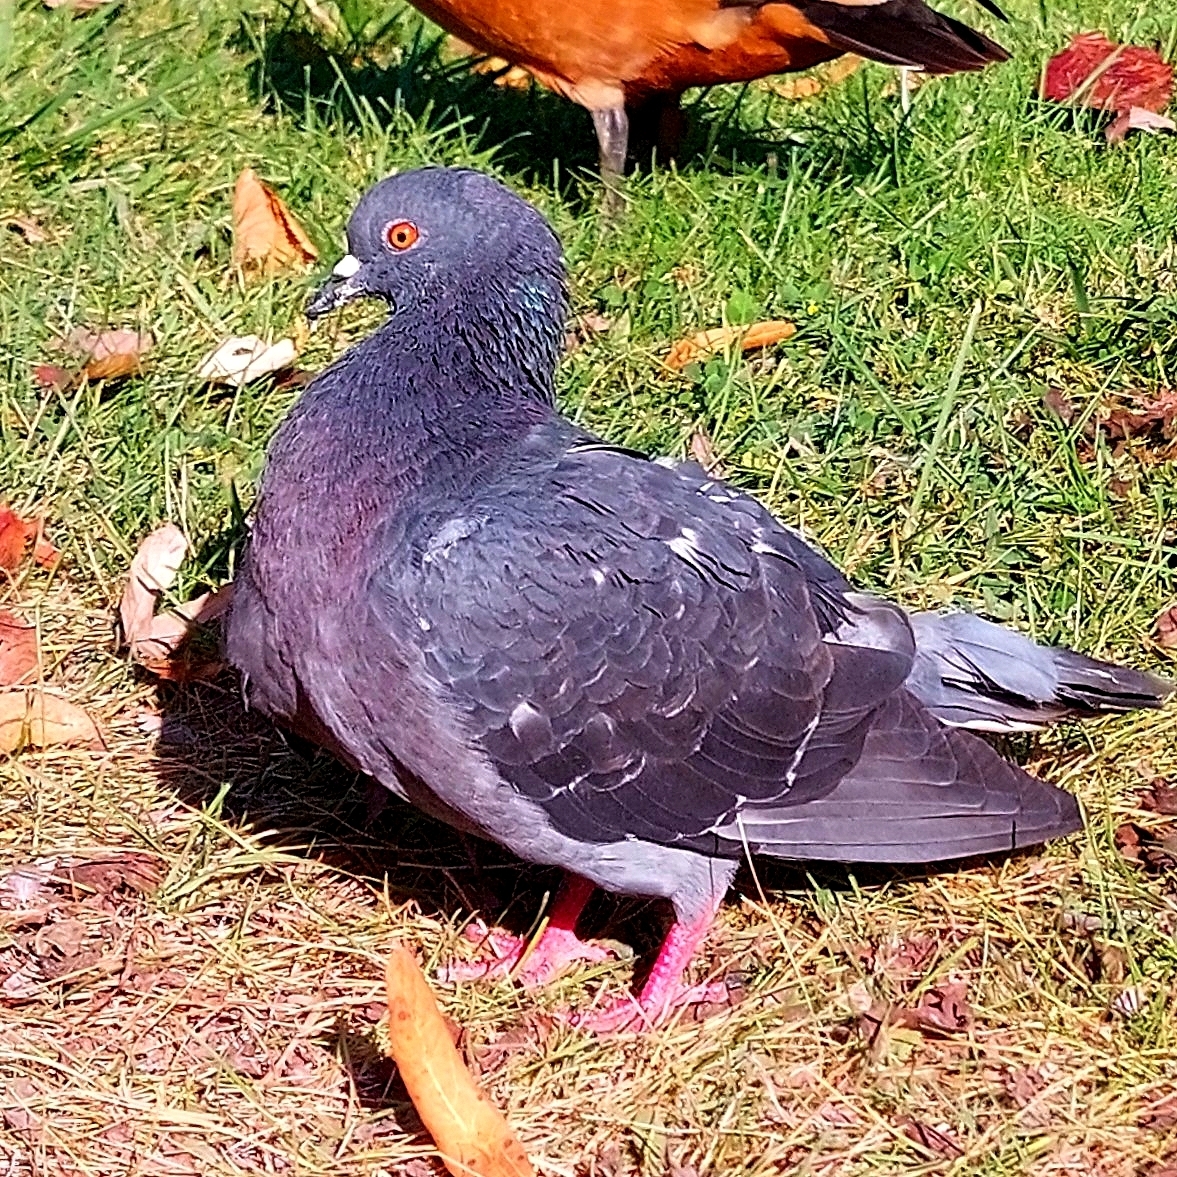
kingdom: Animalia
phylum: Chordata
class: Aves
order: Columbiformes
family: Columbidae
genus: Columba
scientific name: Columba livia
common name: Rock pigeon
